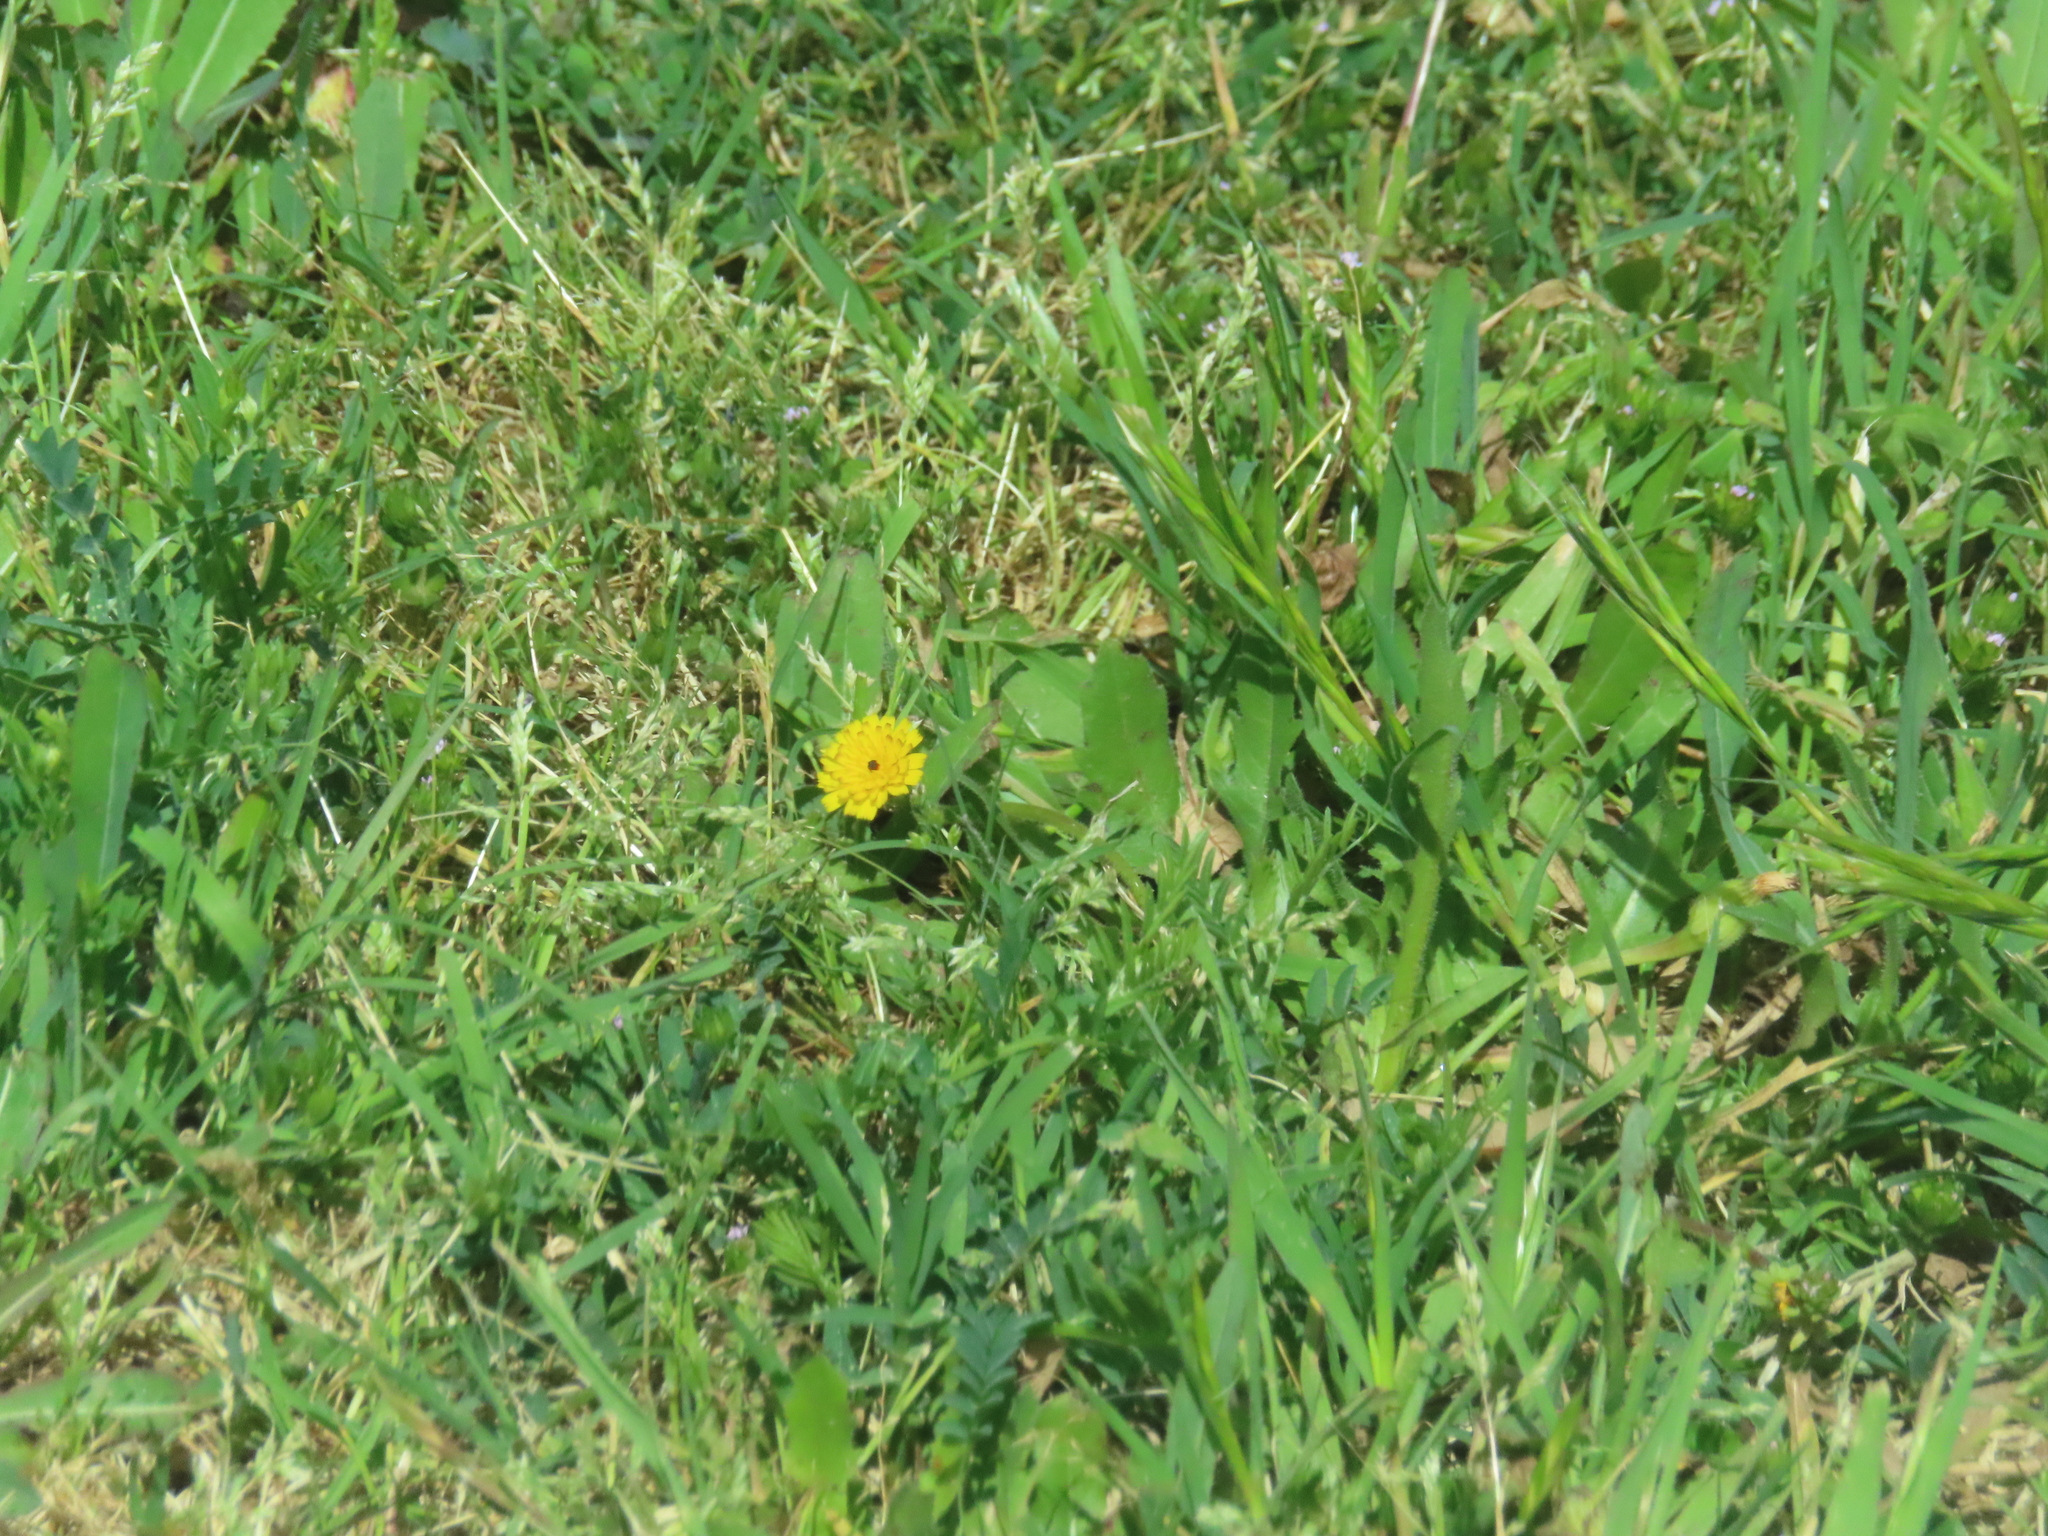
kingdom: Plantae
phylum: Tracheophyta
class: Magnoliopsida
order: Asterales
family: Asteraceae
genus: Hedypnois
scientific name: Hedypnois rhagadioloides
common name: Cretan weed
